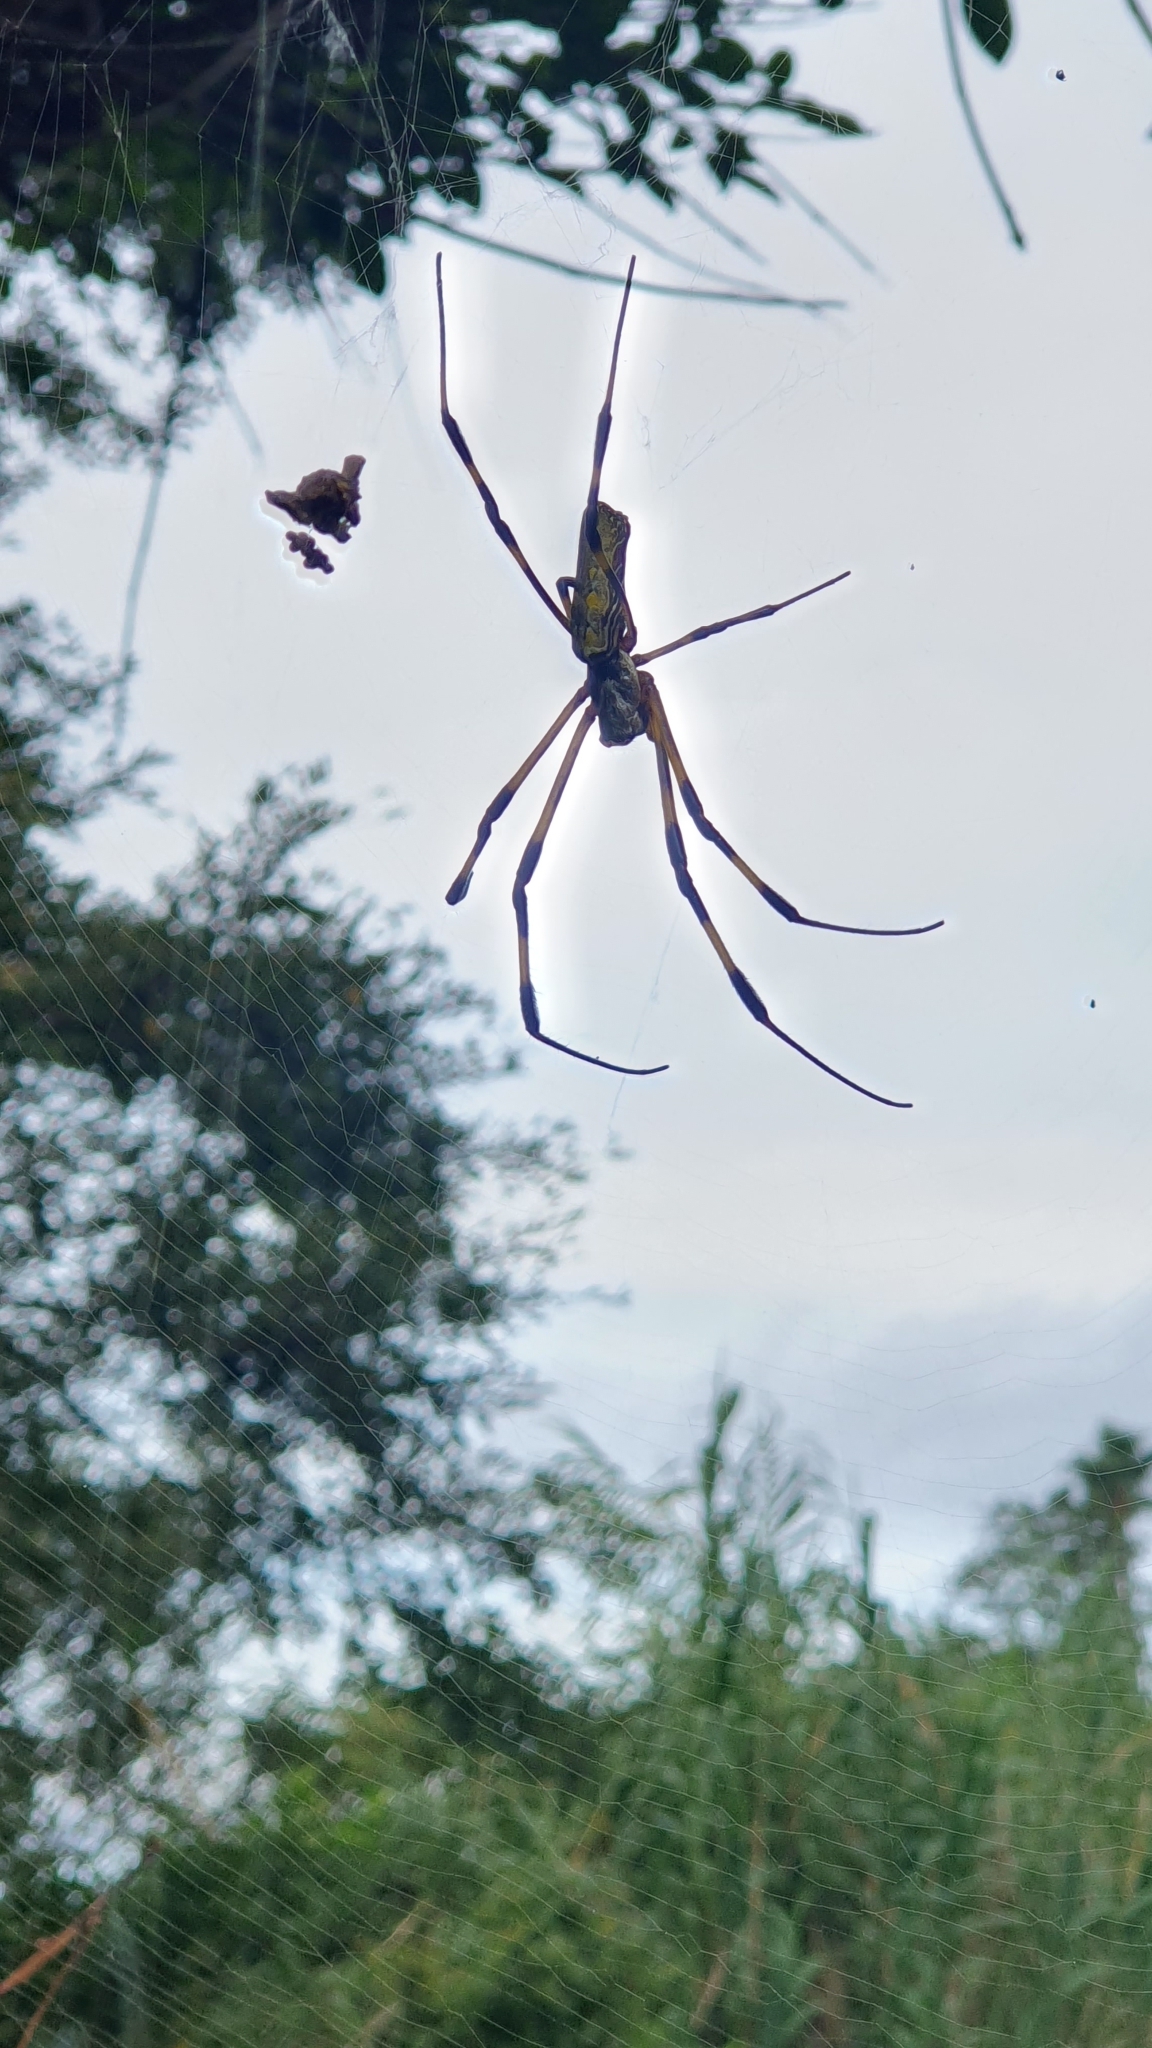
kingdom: Animalia
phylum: Arthropoda
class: Arachnida
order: Araneae
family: Araneidae
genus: Trichonephila
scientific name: Trichonephila clavata
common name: Jorō spider
